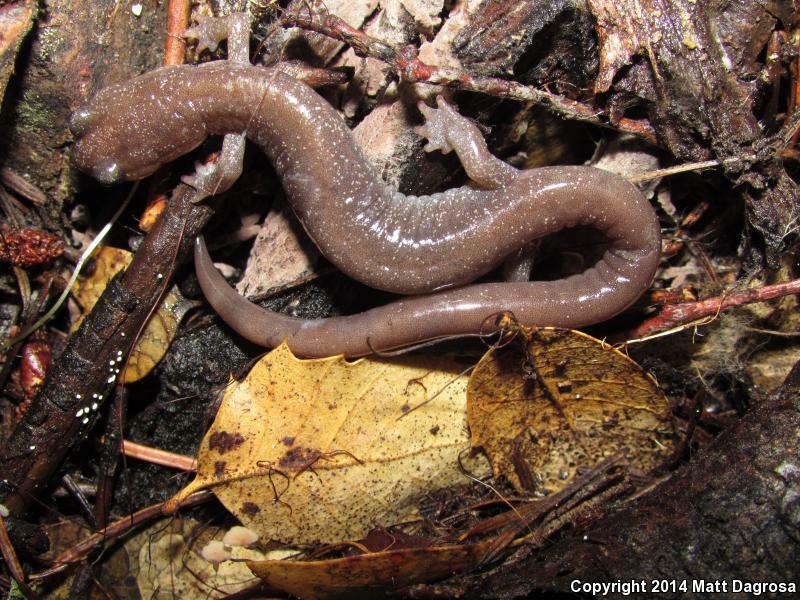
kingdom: Animalia
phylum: Chordata
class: Amphibia
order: Caudata
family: Plethodontidae
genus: Plethodon
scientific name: Plethodon stormi
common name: Siskiyou mountains salamander
